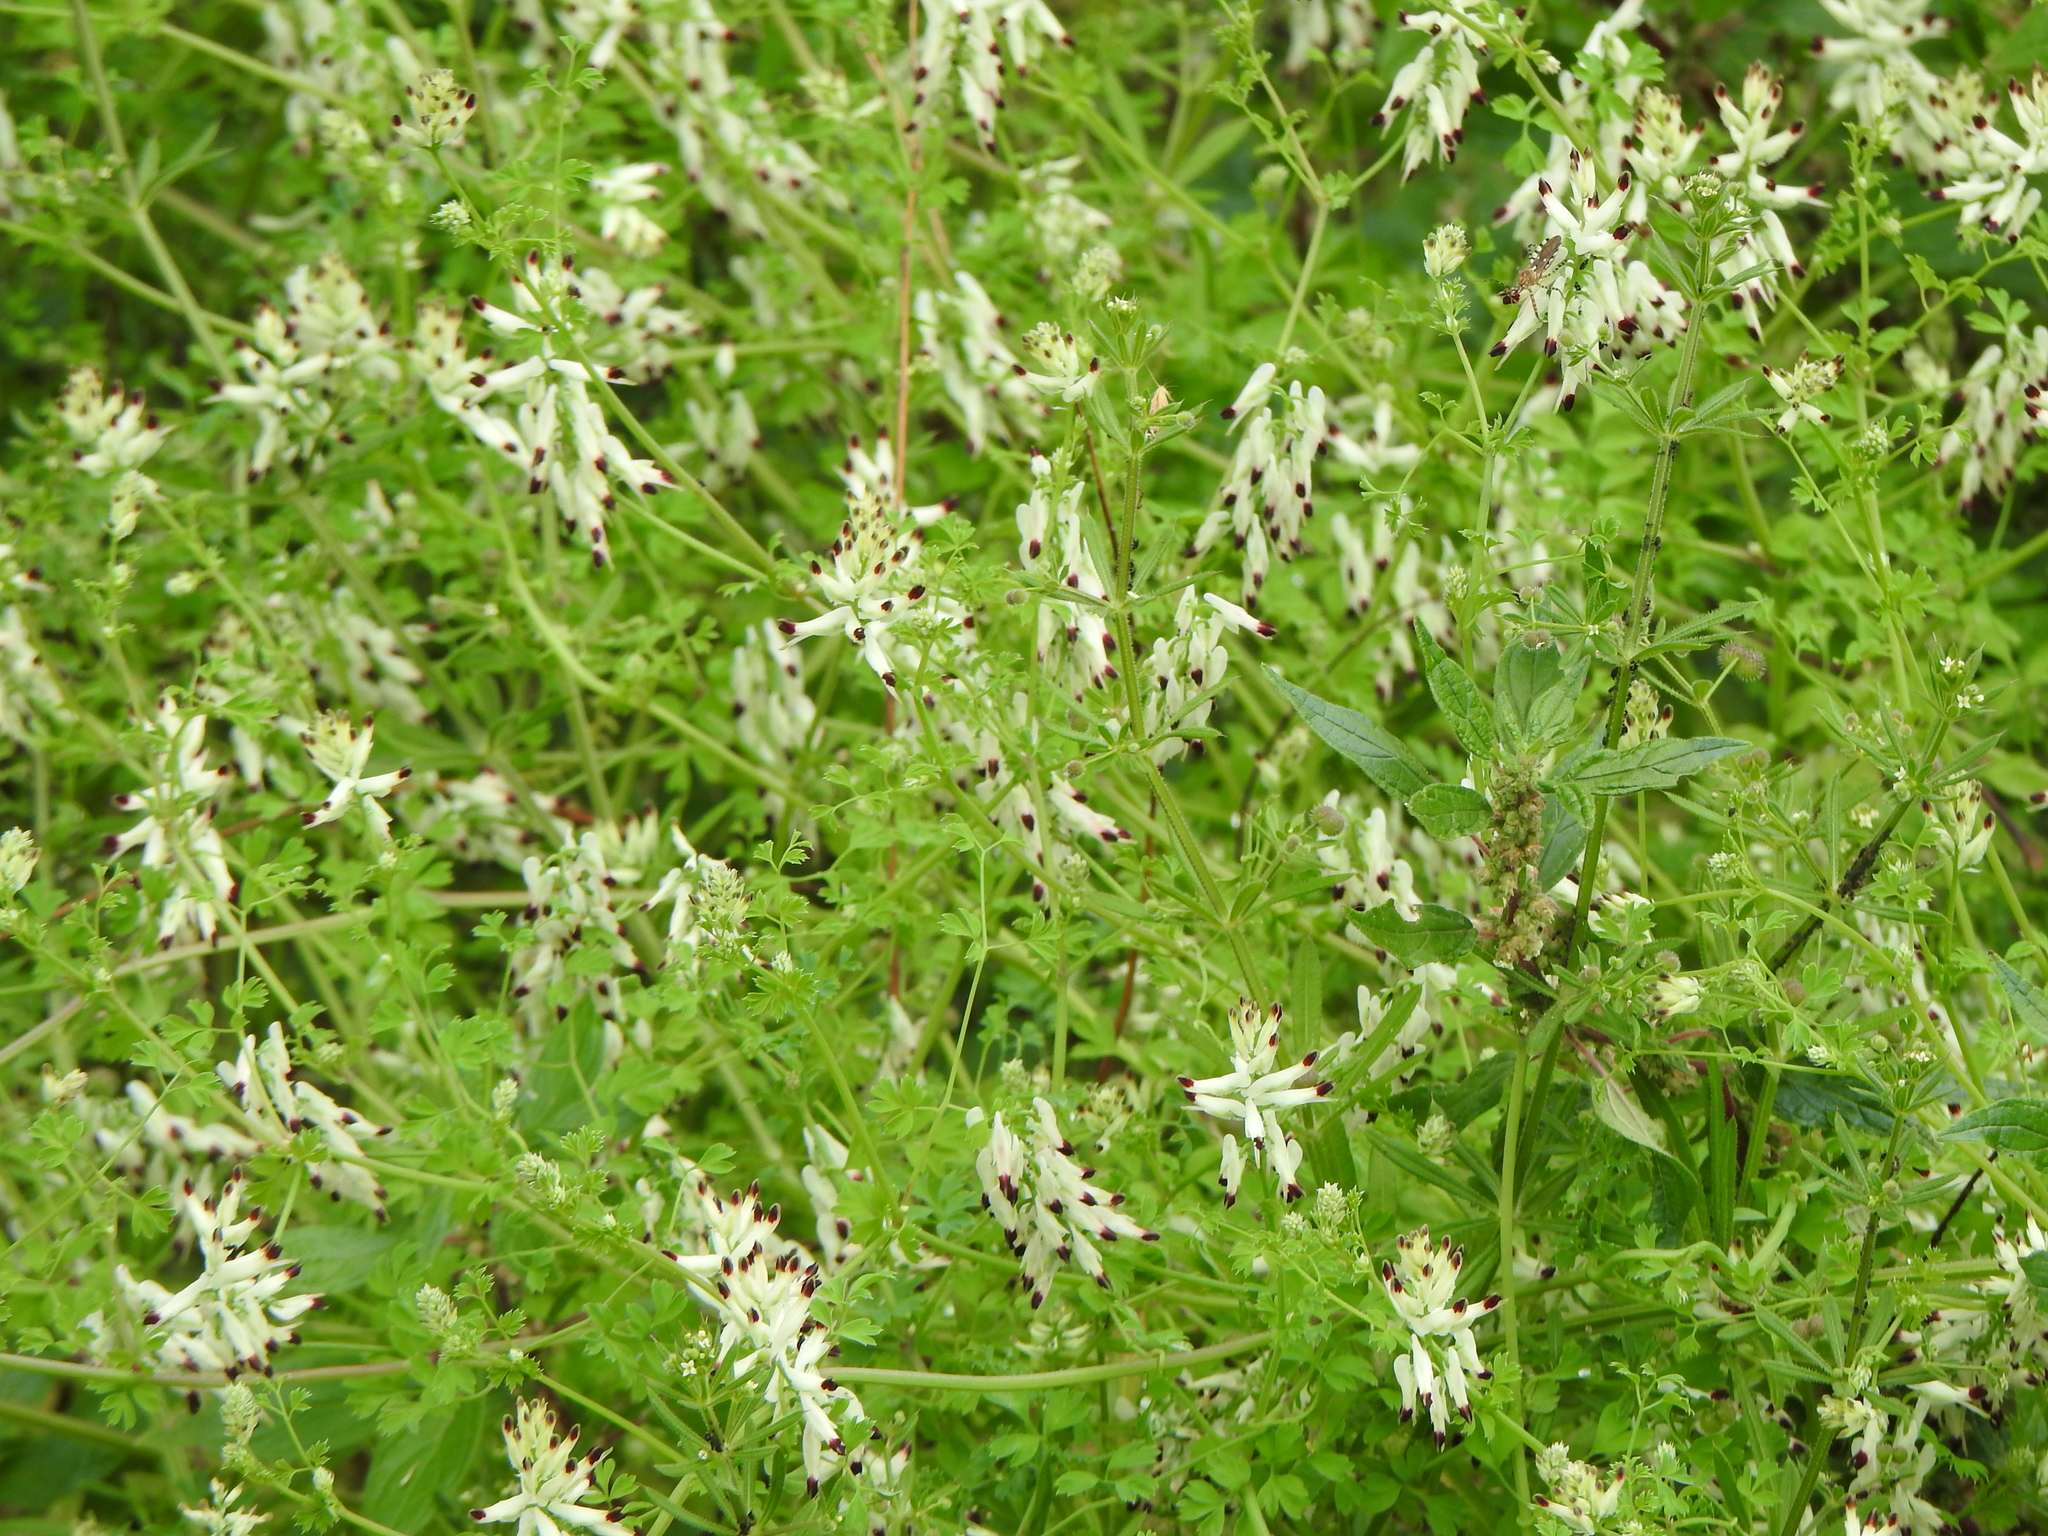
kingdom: Plantae
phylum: Tracheophyta
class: Magnoliopsida
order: Ranunculales
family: Papaveraceae
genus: Fumaria
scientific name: Fumaria capreolata
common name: White ramping-fumitory
